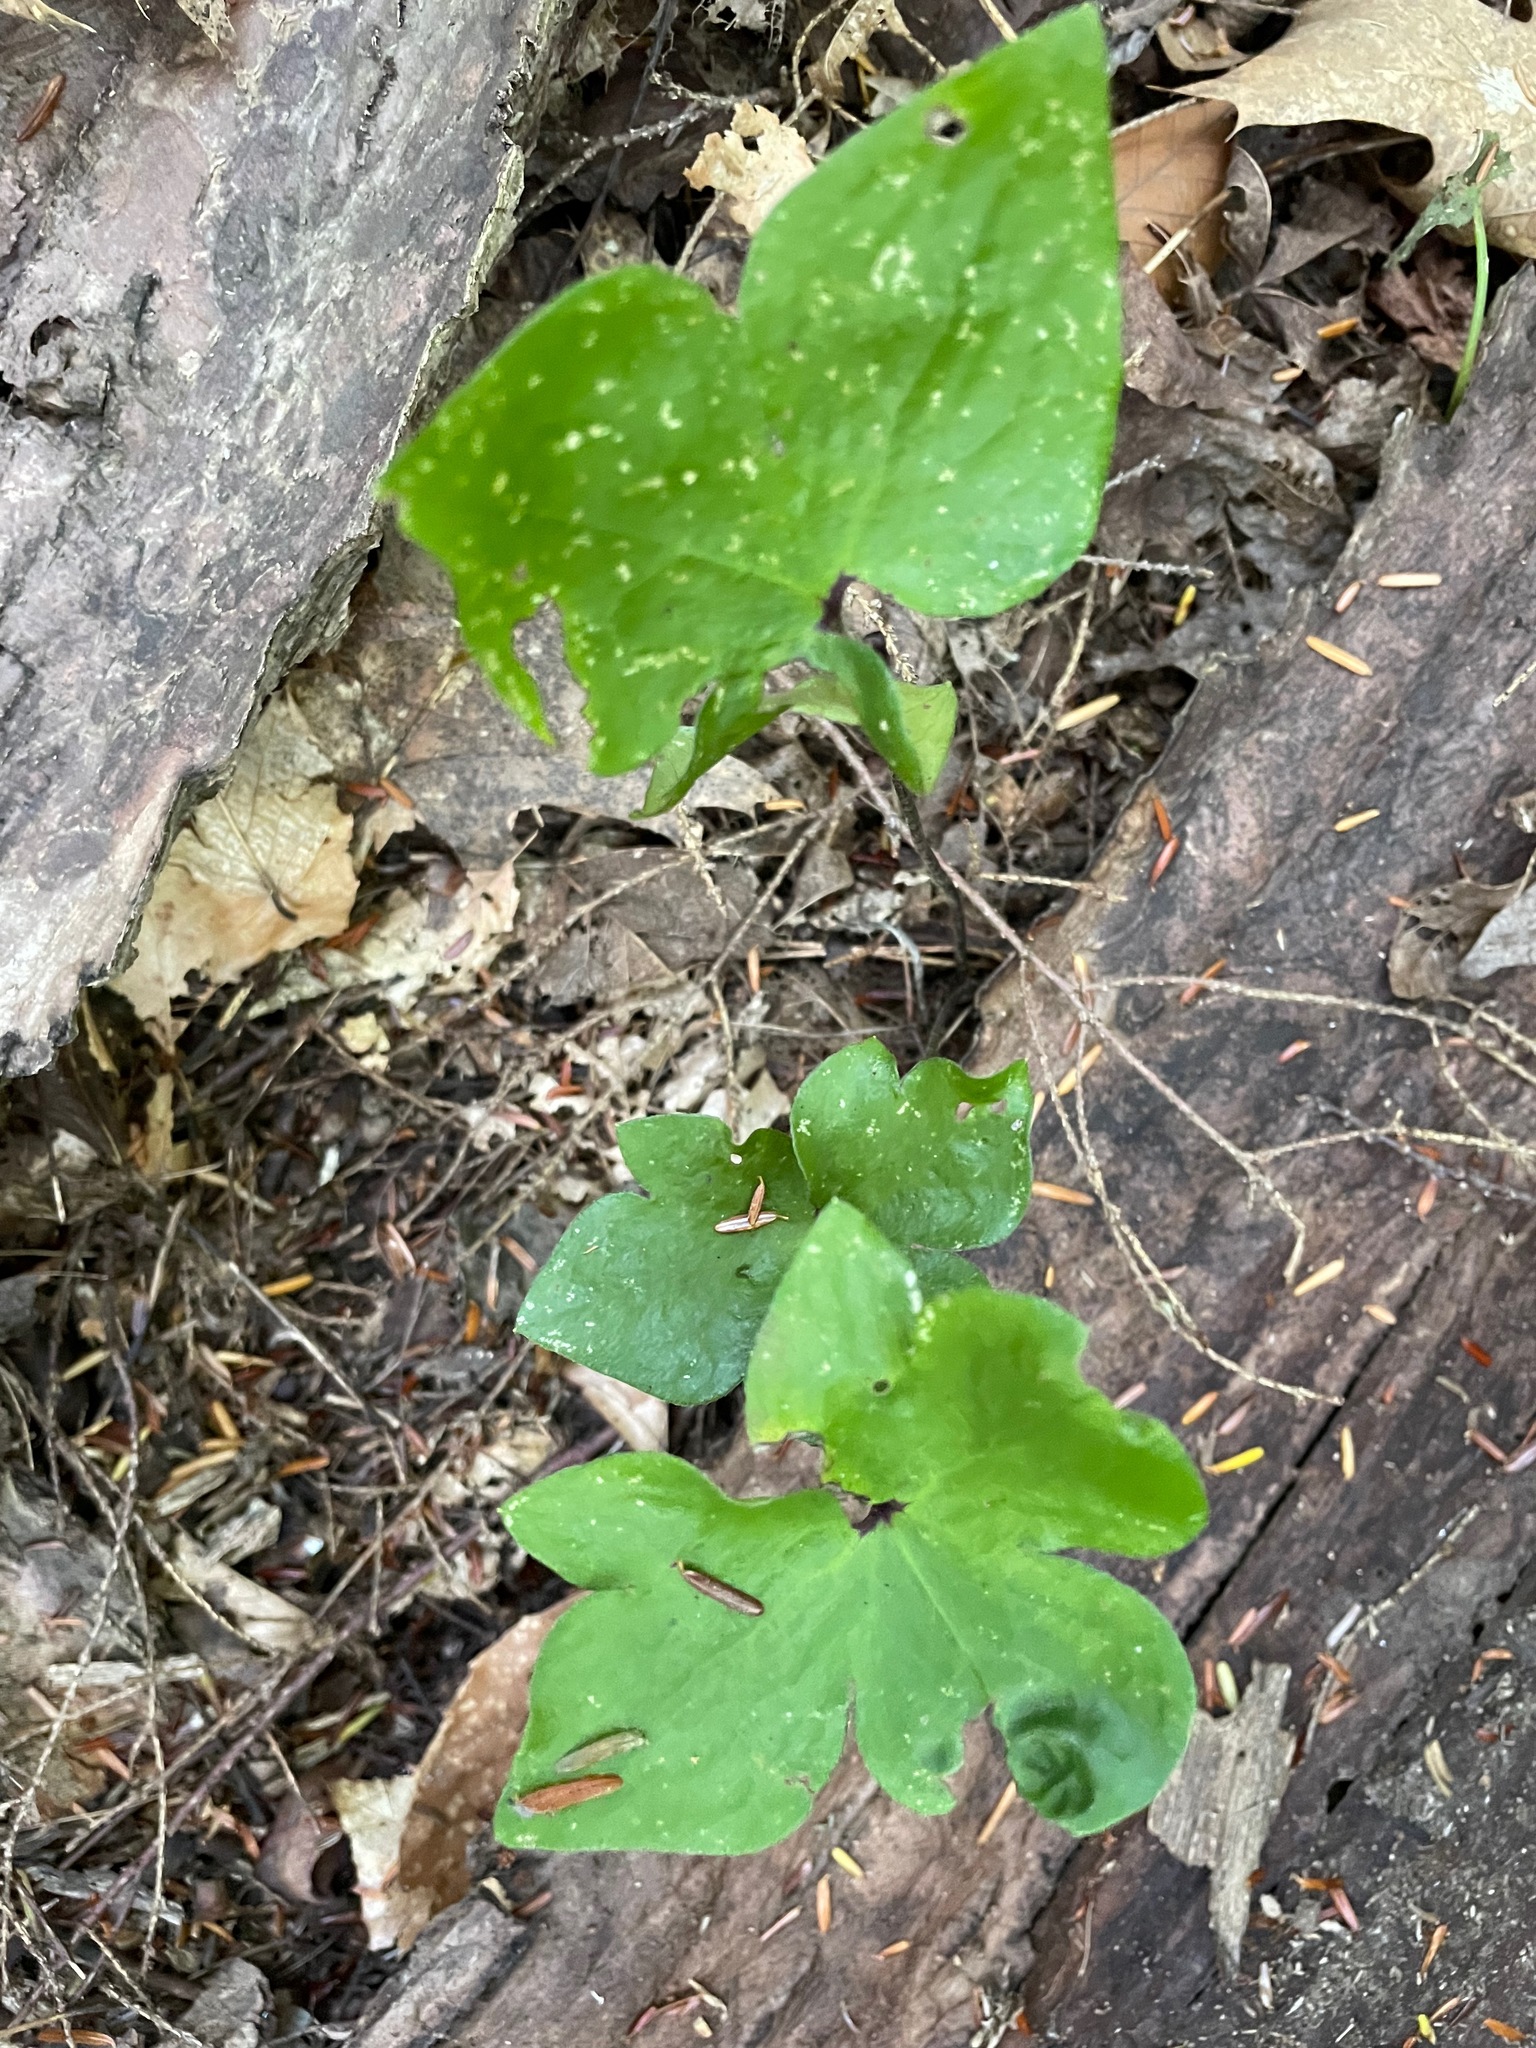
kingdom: Plantae
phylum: Tracheophyta
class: Magnoliopsida
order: Ranunculales
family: Ranunculaceae
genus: Hepatica
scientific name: Hepatica acutiloba
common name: Sharp-lobed hepatica
